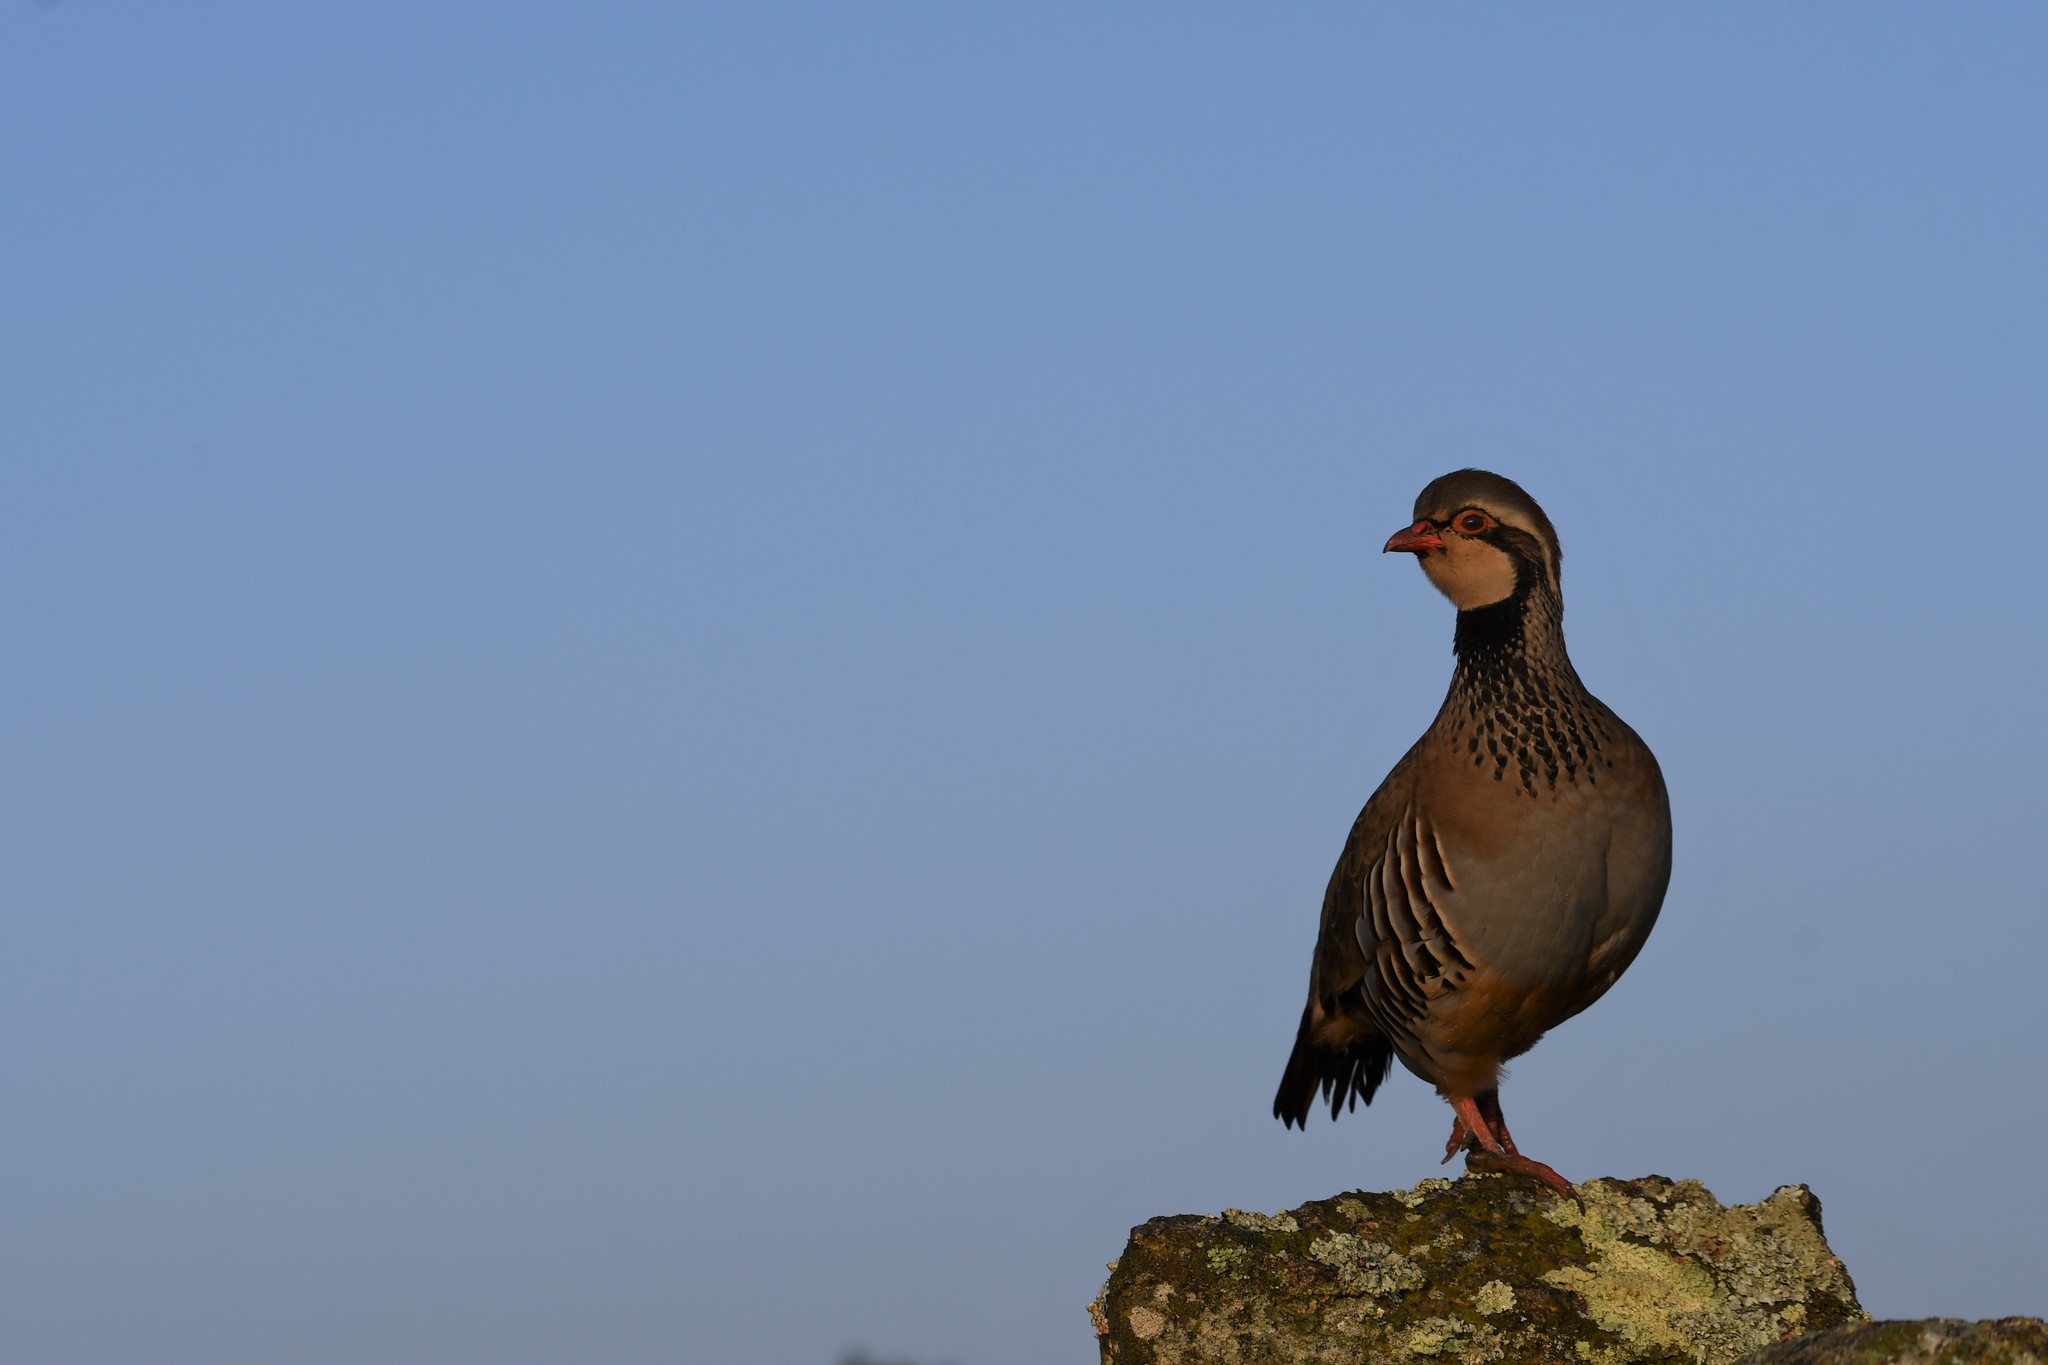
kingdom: Animalia
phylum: Chordata
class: Aves
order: Galliformes
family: Phasianidae
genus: Alectoris
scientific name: Alectoris rufa
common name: Red-legged partridge
